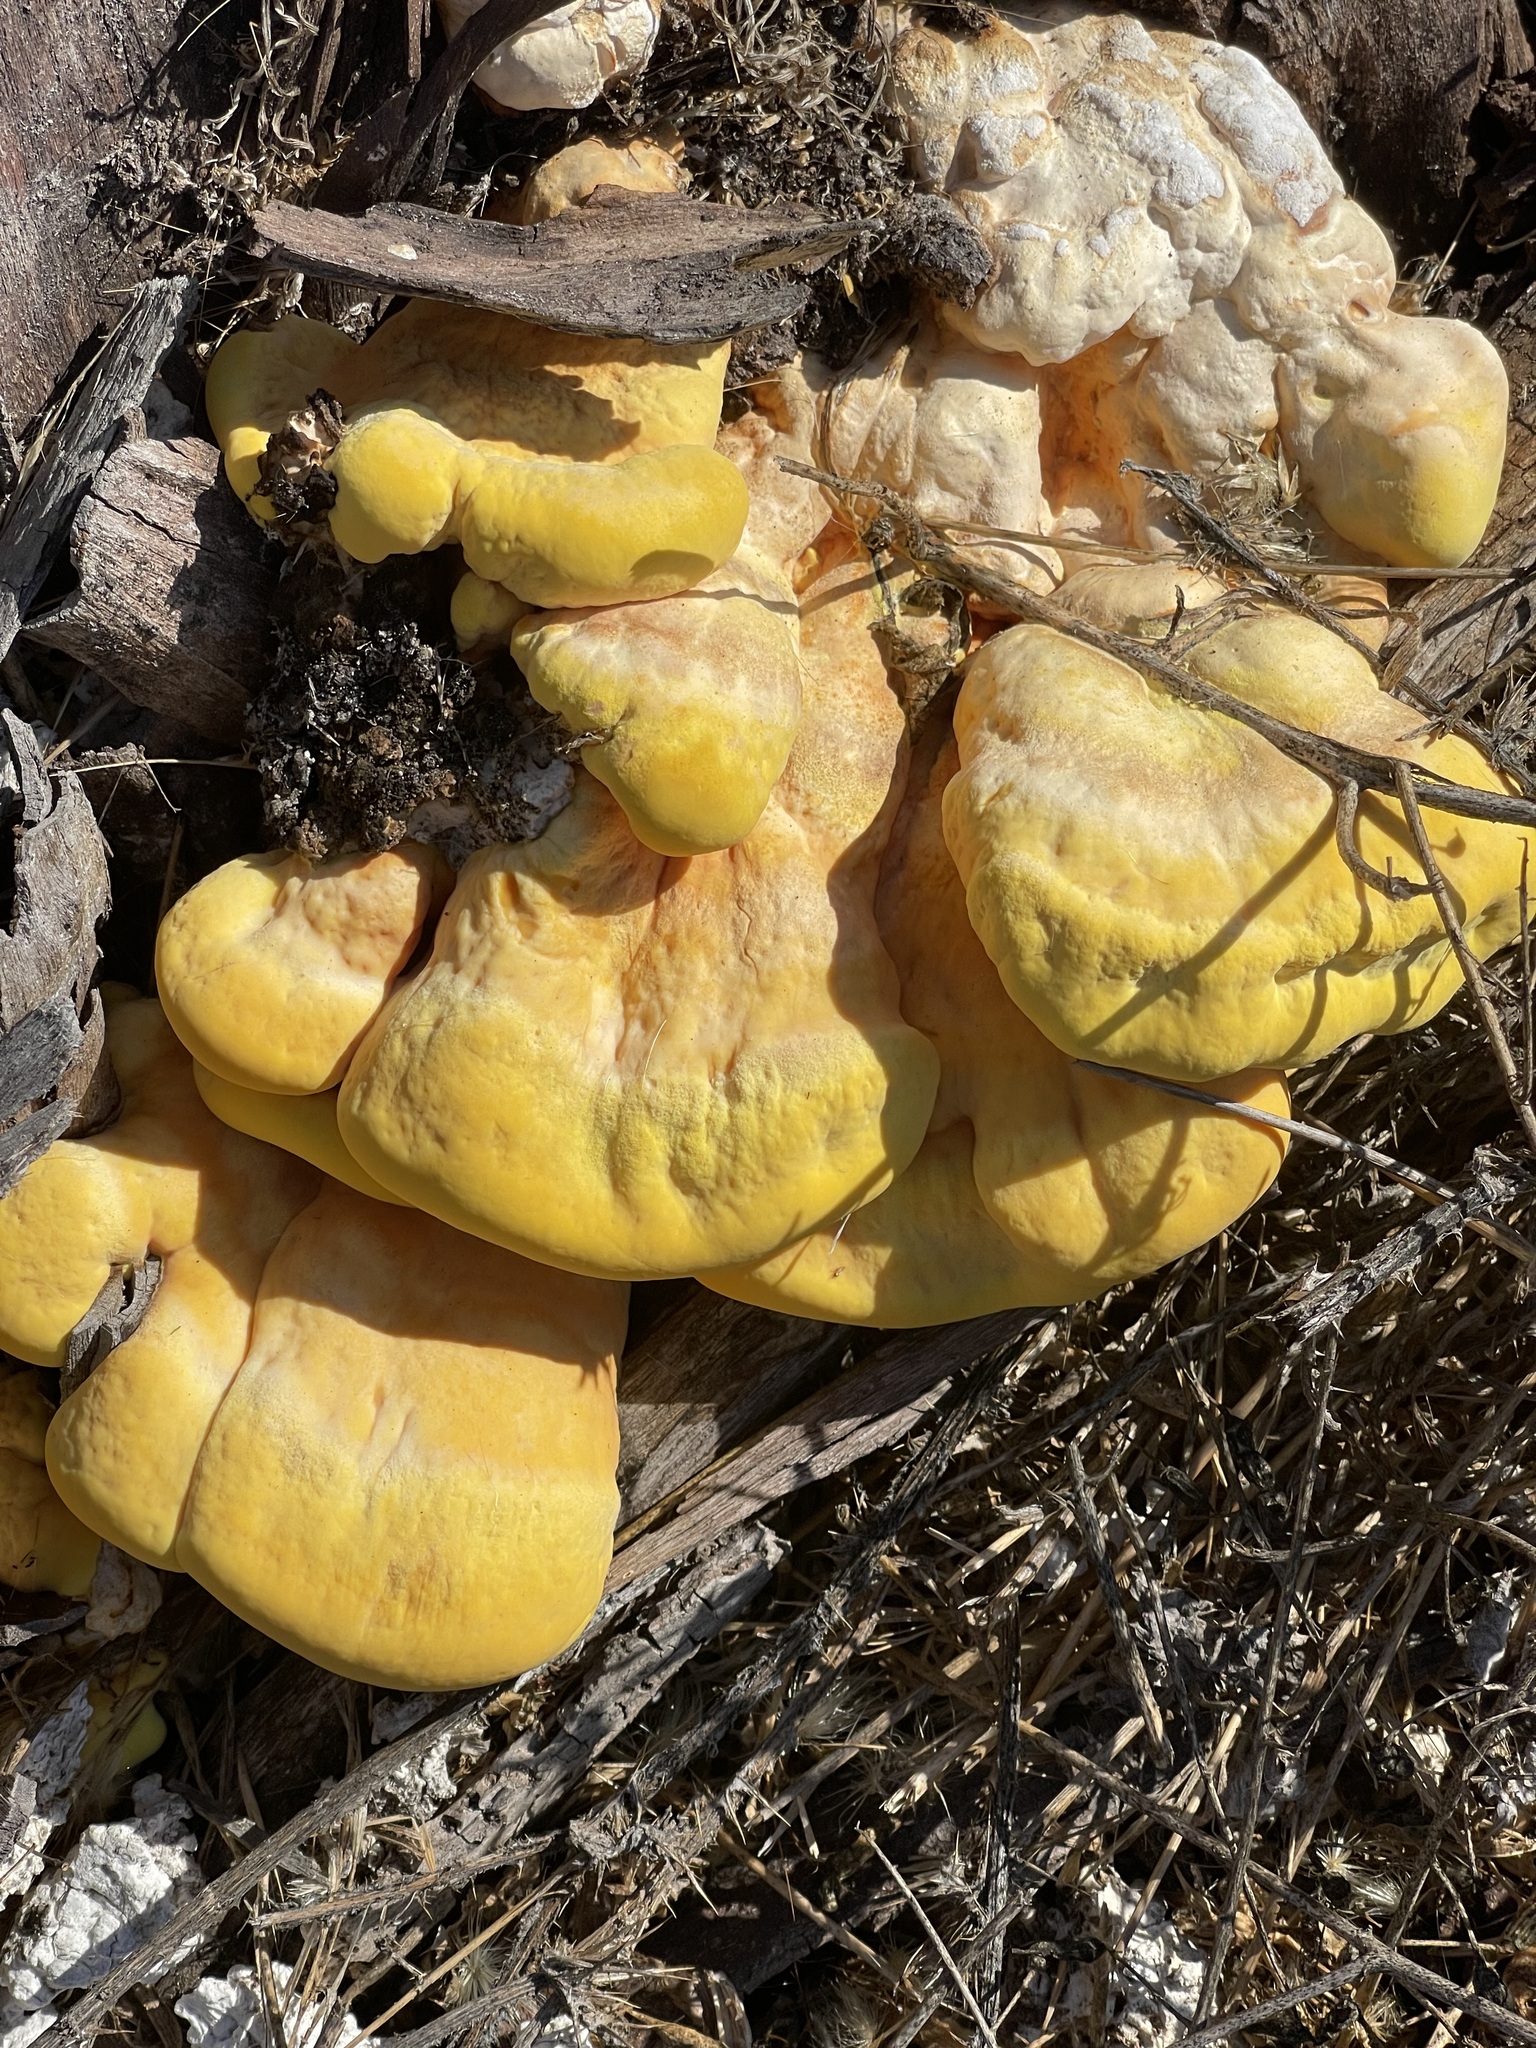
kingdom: Fungi
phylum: Basidiomycota
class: Agaricomycetes
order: Polyporales
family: Laetiporaceae
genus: Laetiporus
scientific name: Laetiporus gilbertsonii
